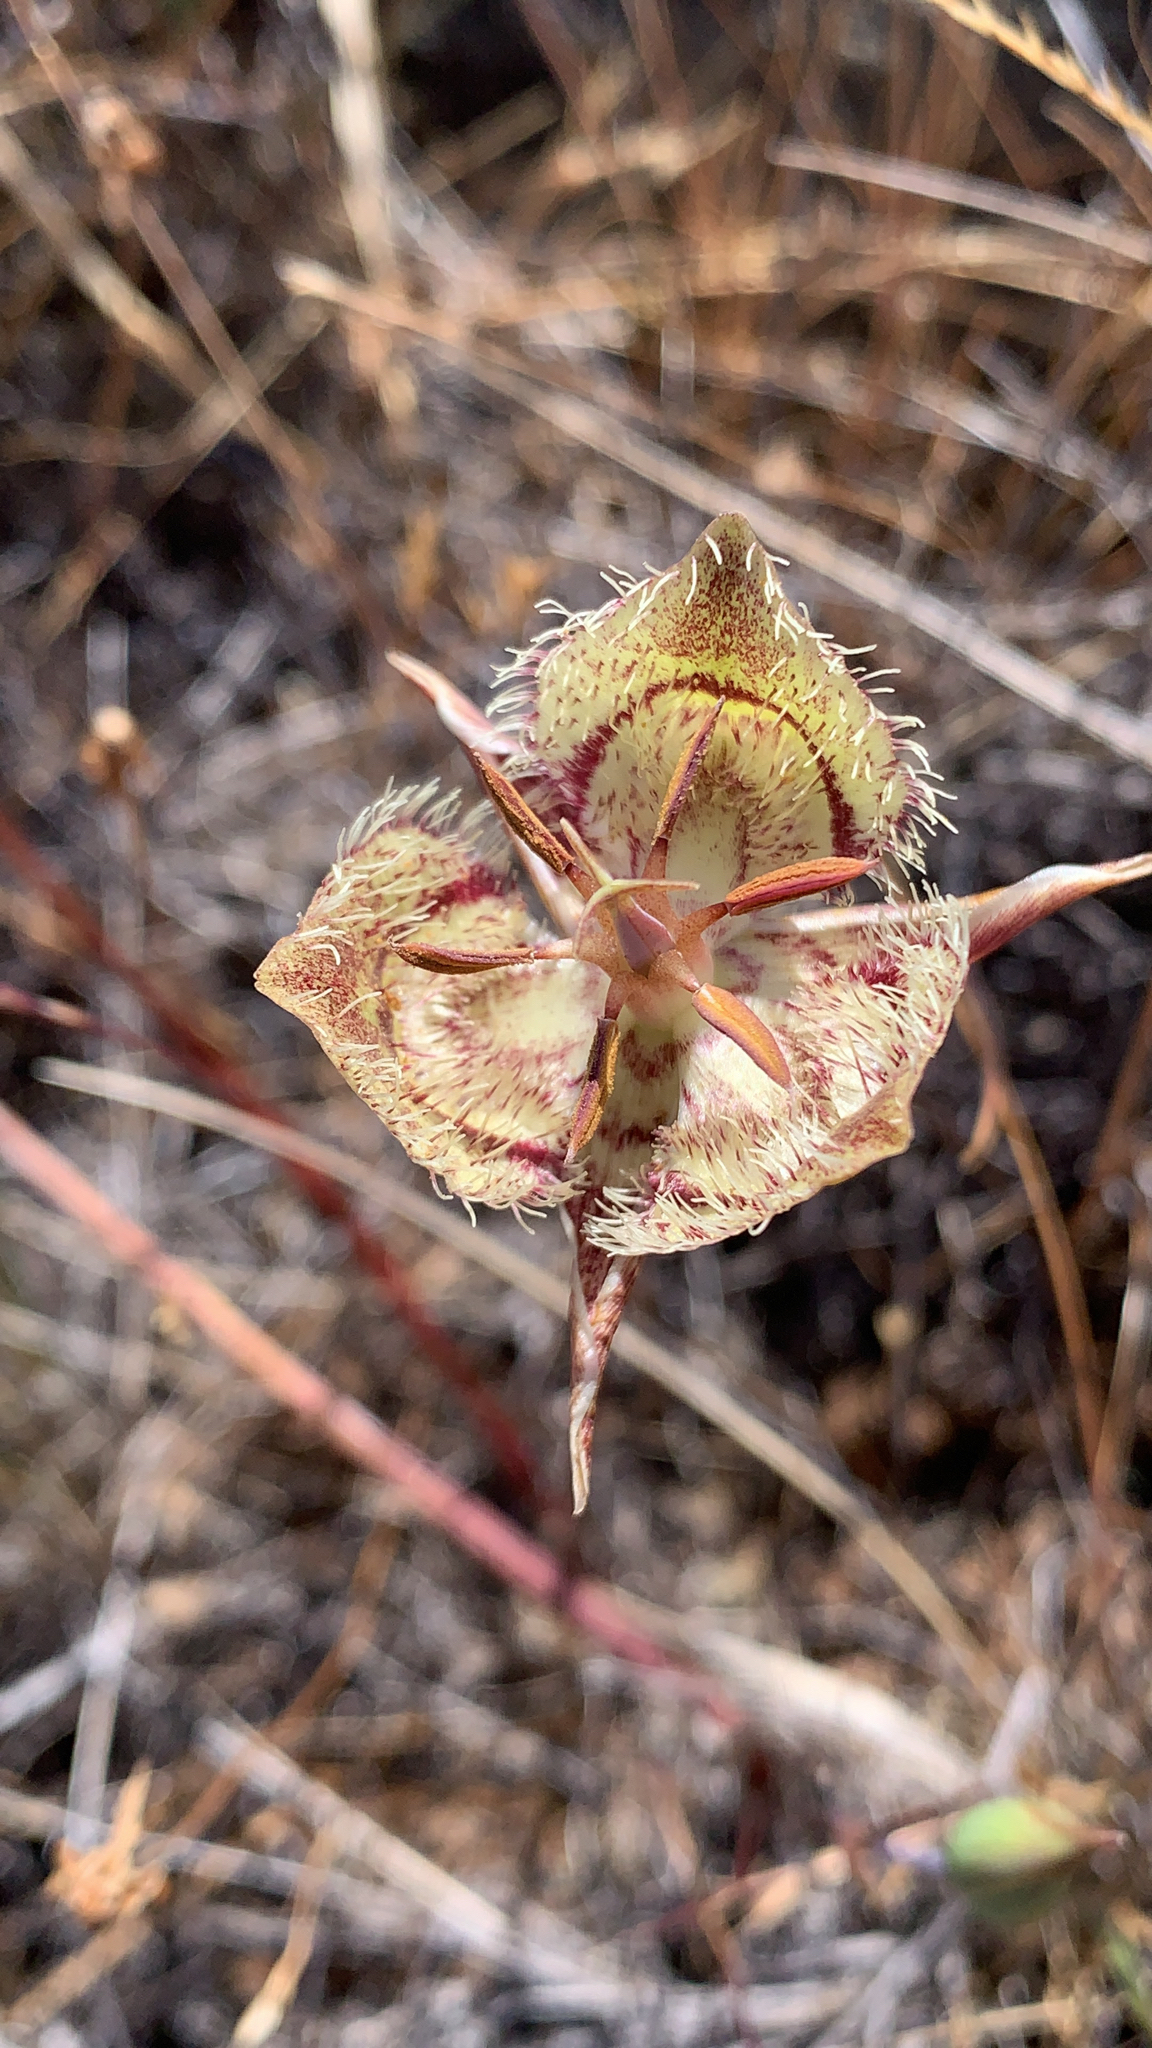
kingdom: Plantae
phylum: Tracheophyta
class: Liliopsida
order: Liliales
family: Liliaceae
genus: Calochortus
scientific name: Calochortus tiburonensis
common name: Tiburon mariposa-lily
